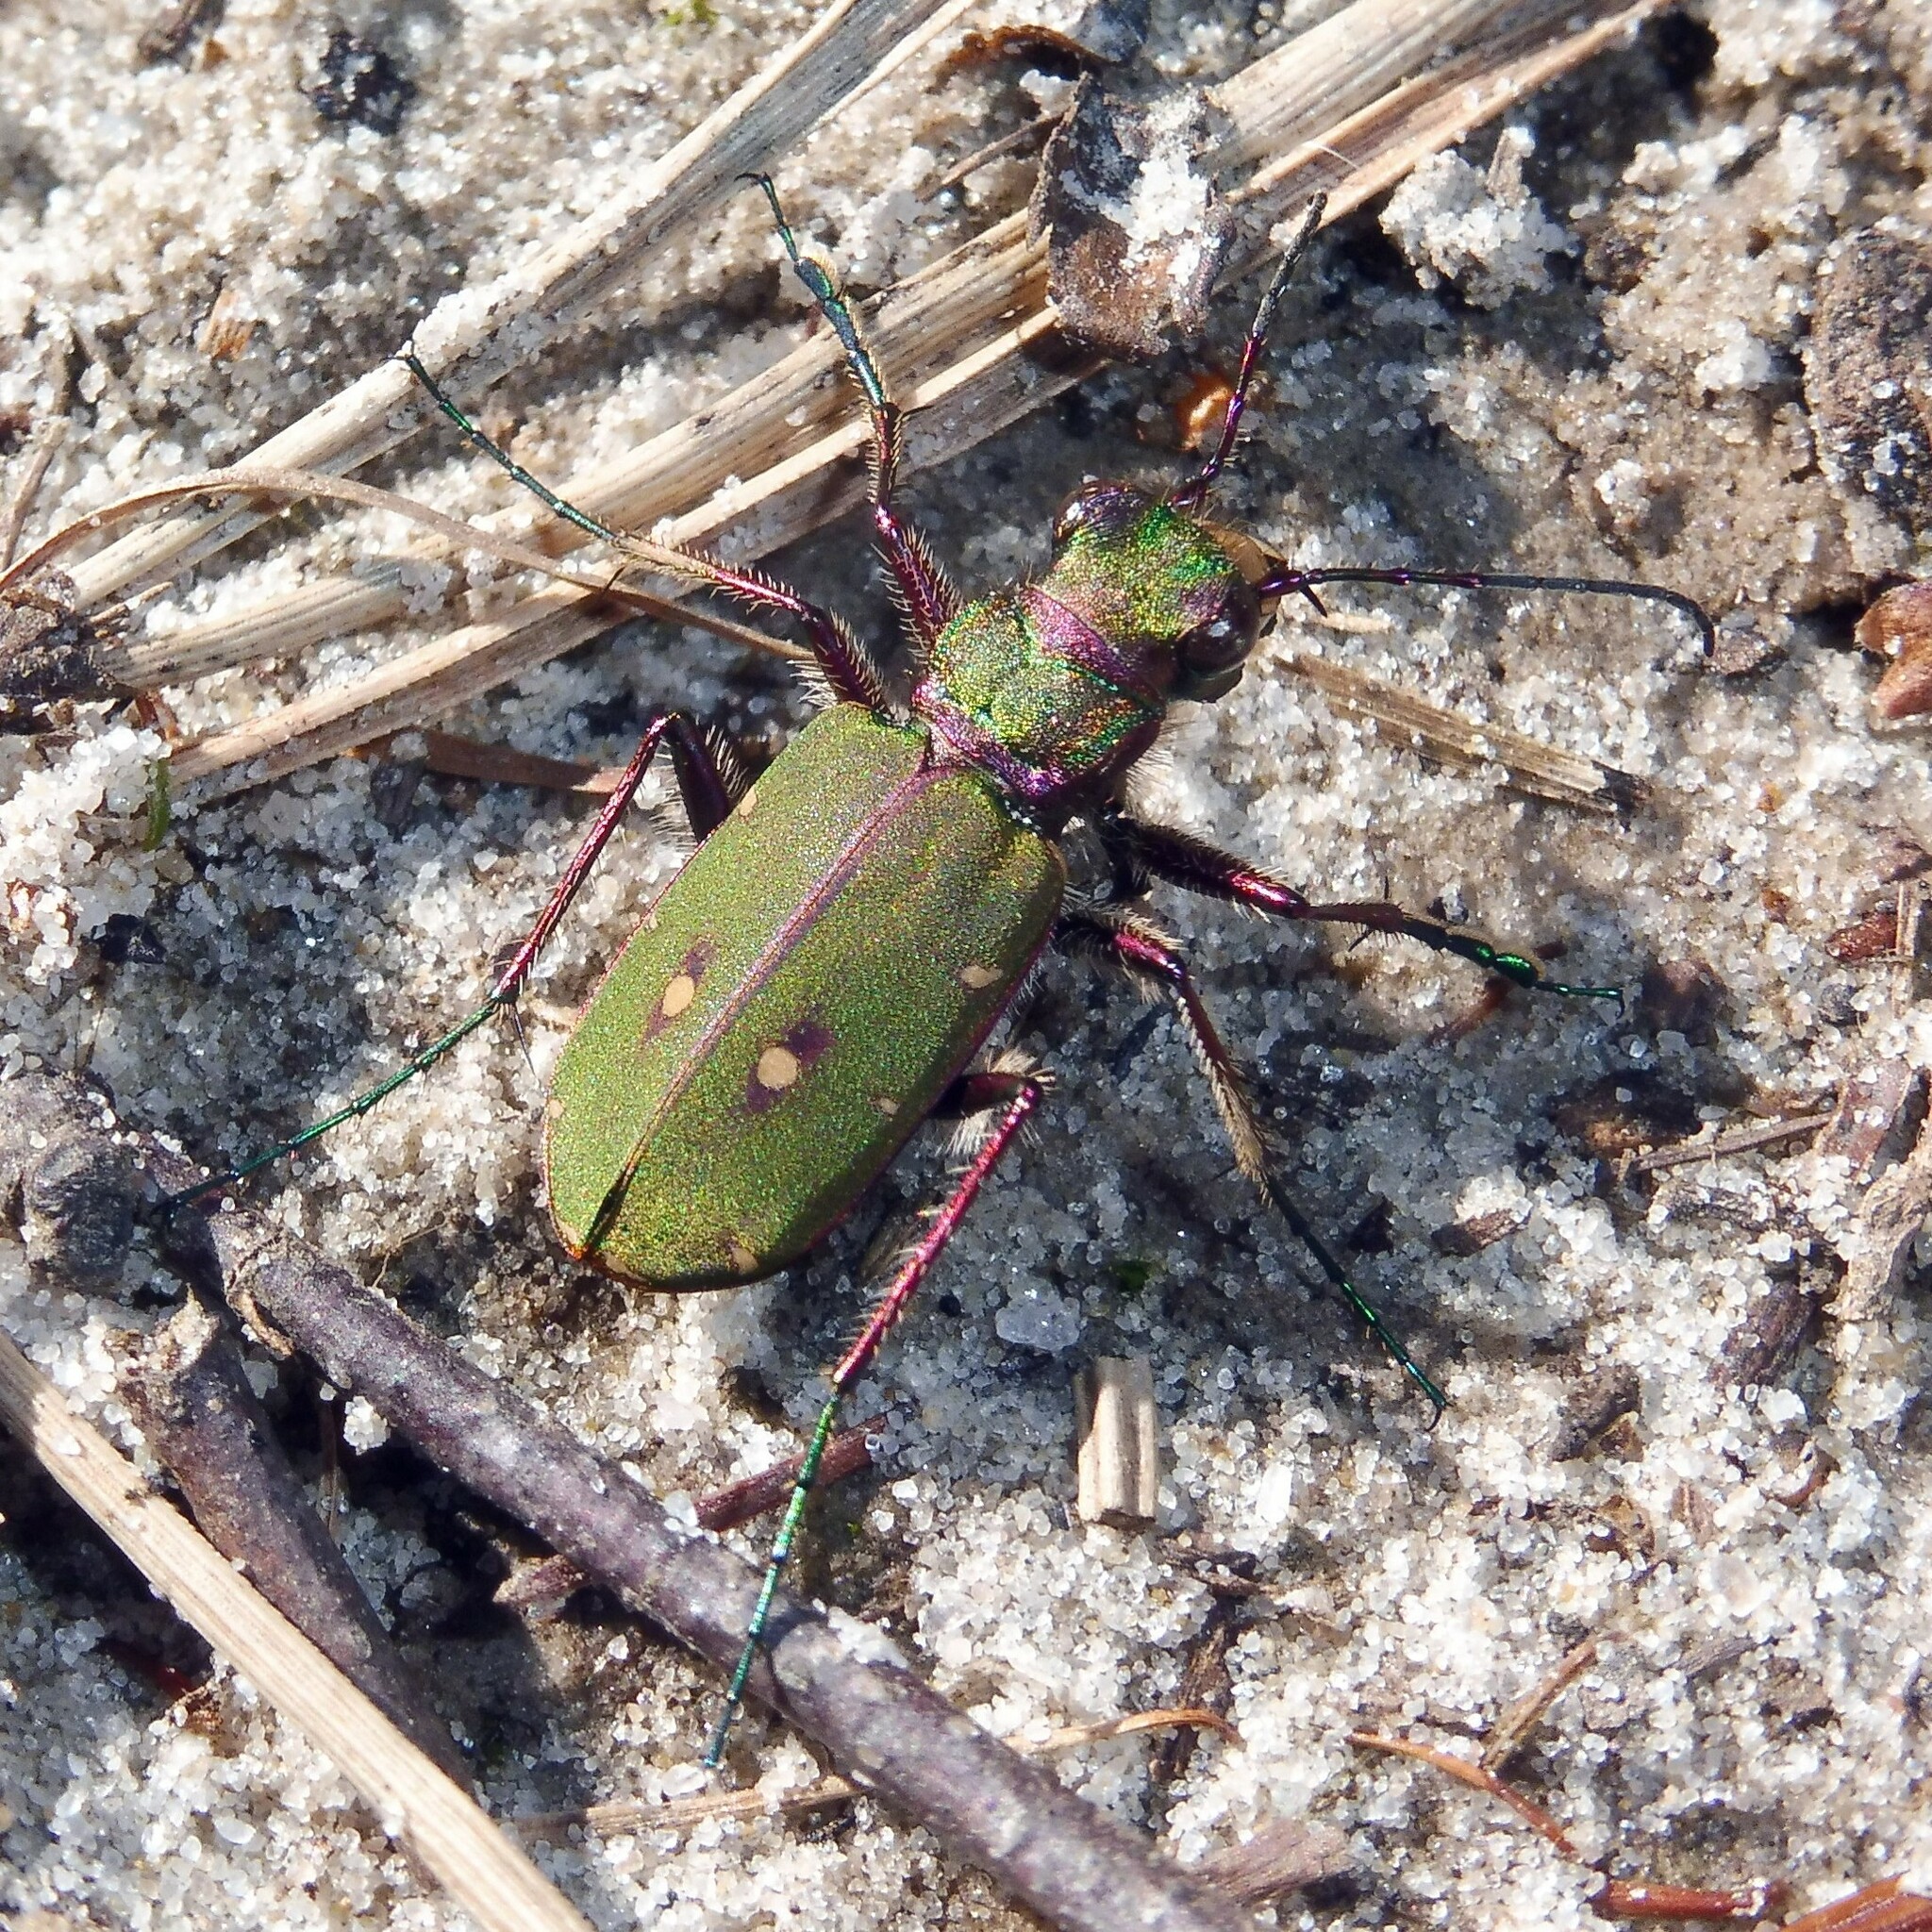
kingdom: Animalia
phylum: Arthropoda
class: Insecta
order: Coleoptera
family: Carabidae
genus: Cicindela
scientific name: Cicindela campestris
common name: Common tiger beetle
